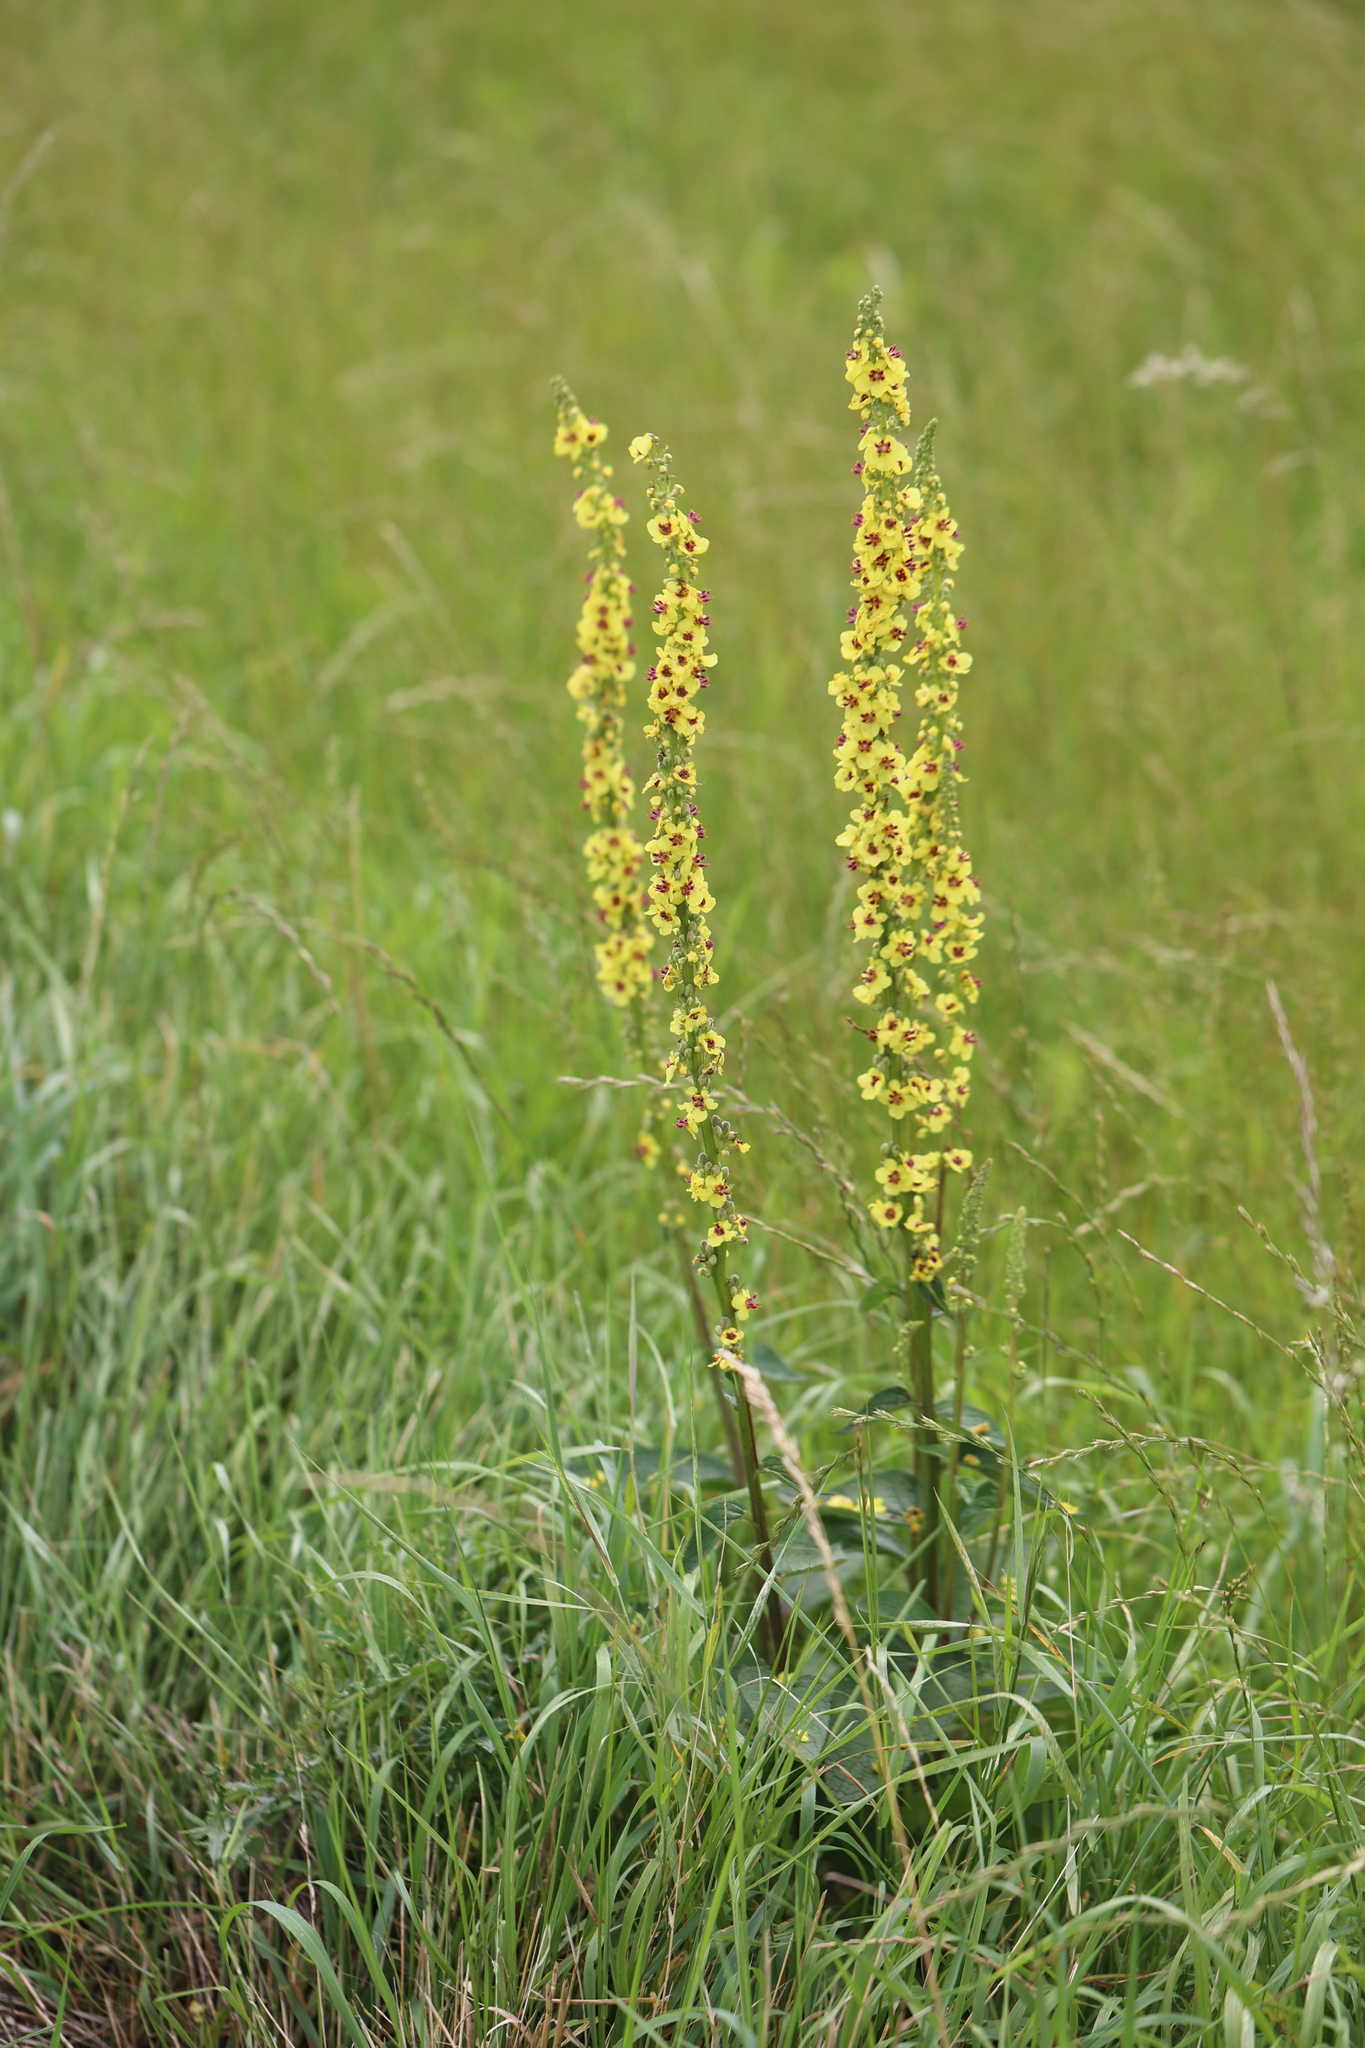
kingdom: Plantae
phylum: Tracheophyta
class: Magnoliopsida
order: Lamiales
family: Scrophulariaceae
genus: Verbascum
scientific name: Verbascum nigrum
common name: Dark mullein
